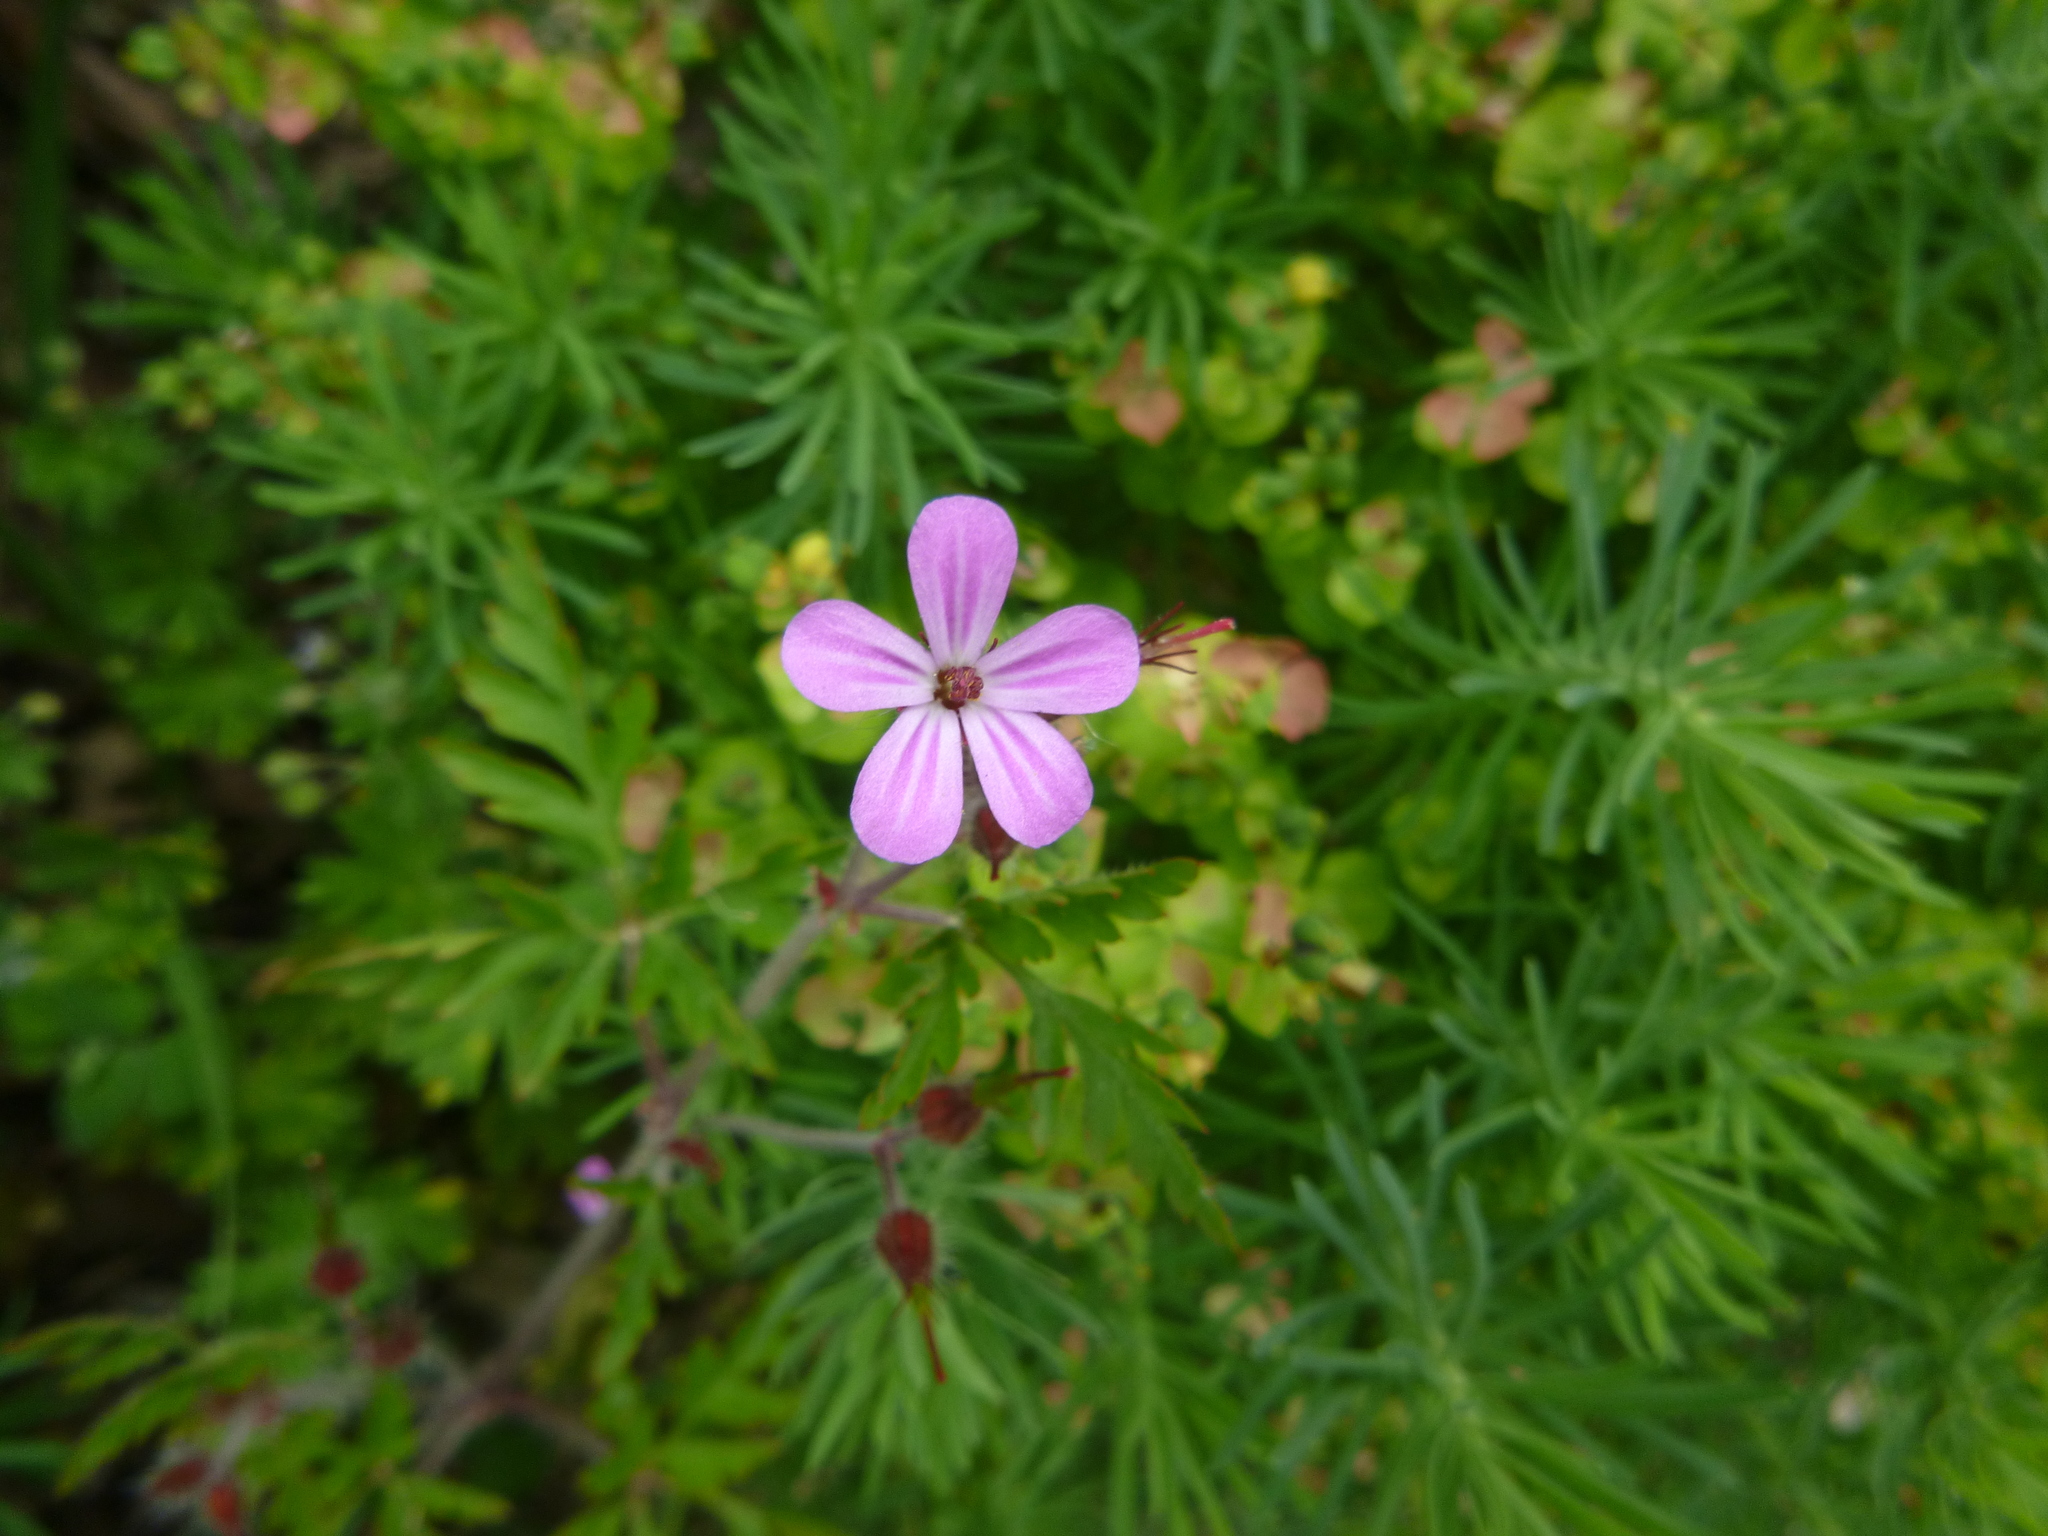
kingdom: Plantae
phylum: Tracheophyta
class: Magnoliopsida
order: Geraniales
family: Geraniaceae
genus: Geranium
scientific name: Geranium robertianum
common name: Herb-robert
